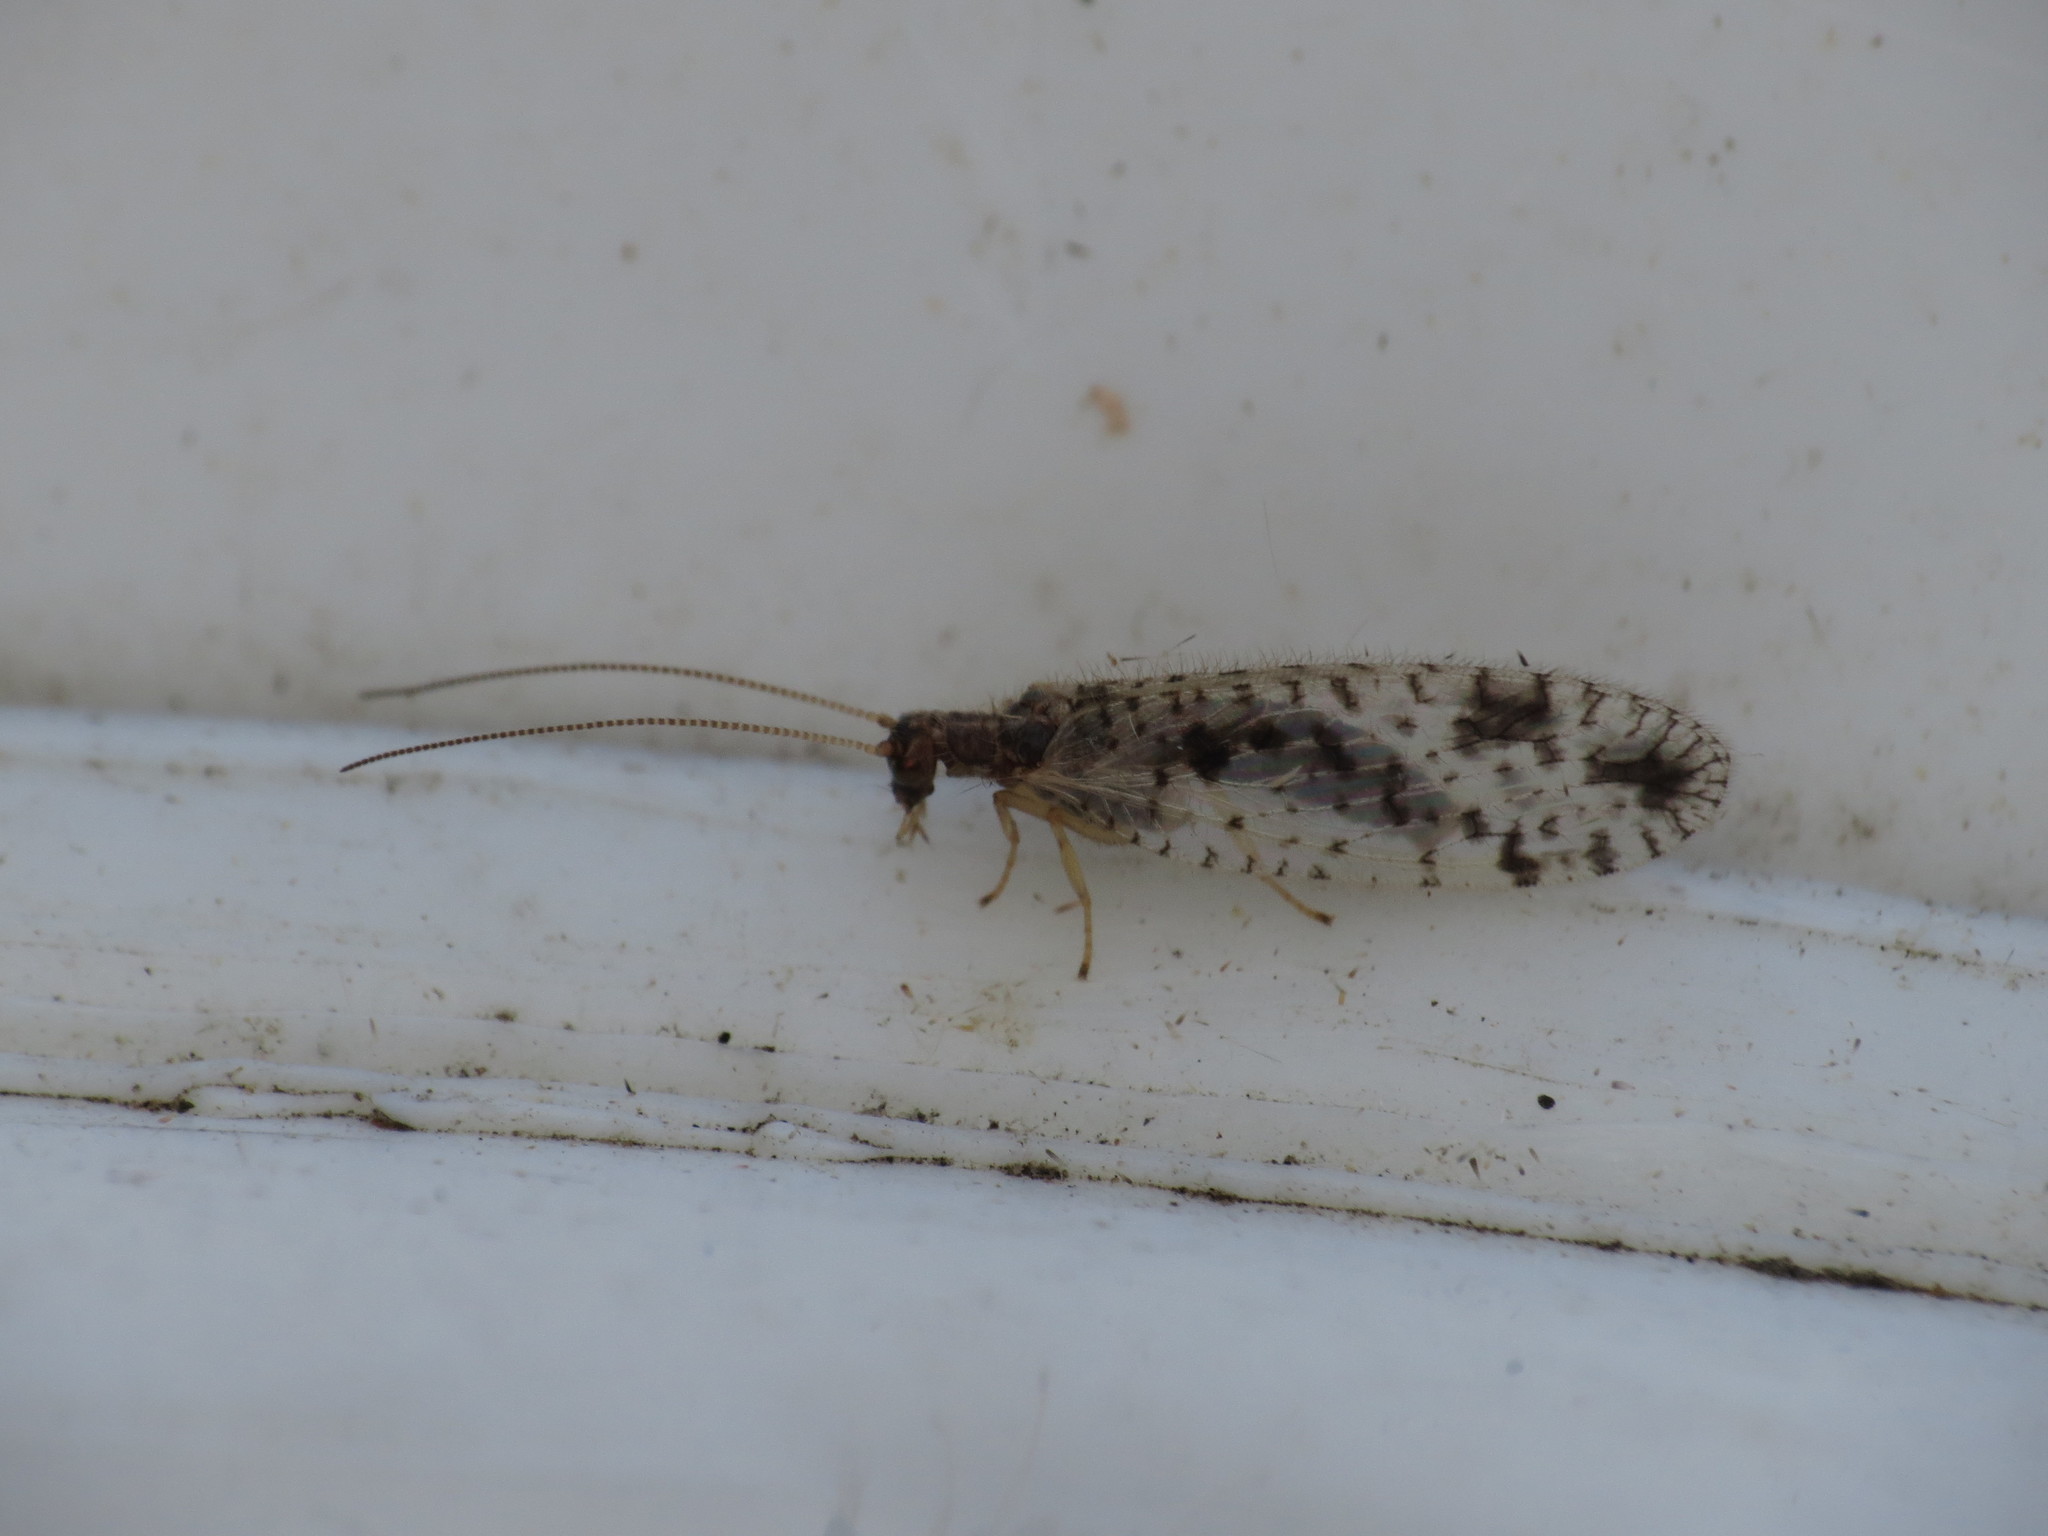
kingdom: Animalia
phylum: Arthropoda
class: Insecta
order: Neuroptera
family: Hemerobiidae
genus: Micromus
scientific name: Micromus variegatus
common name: Brown lacewing
